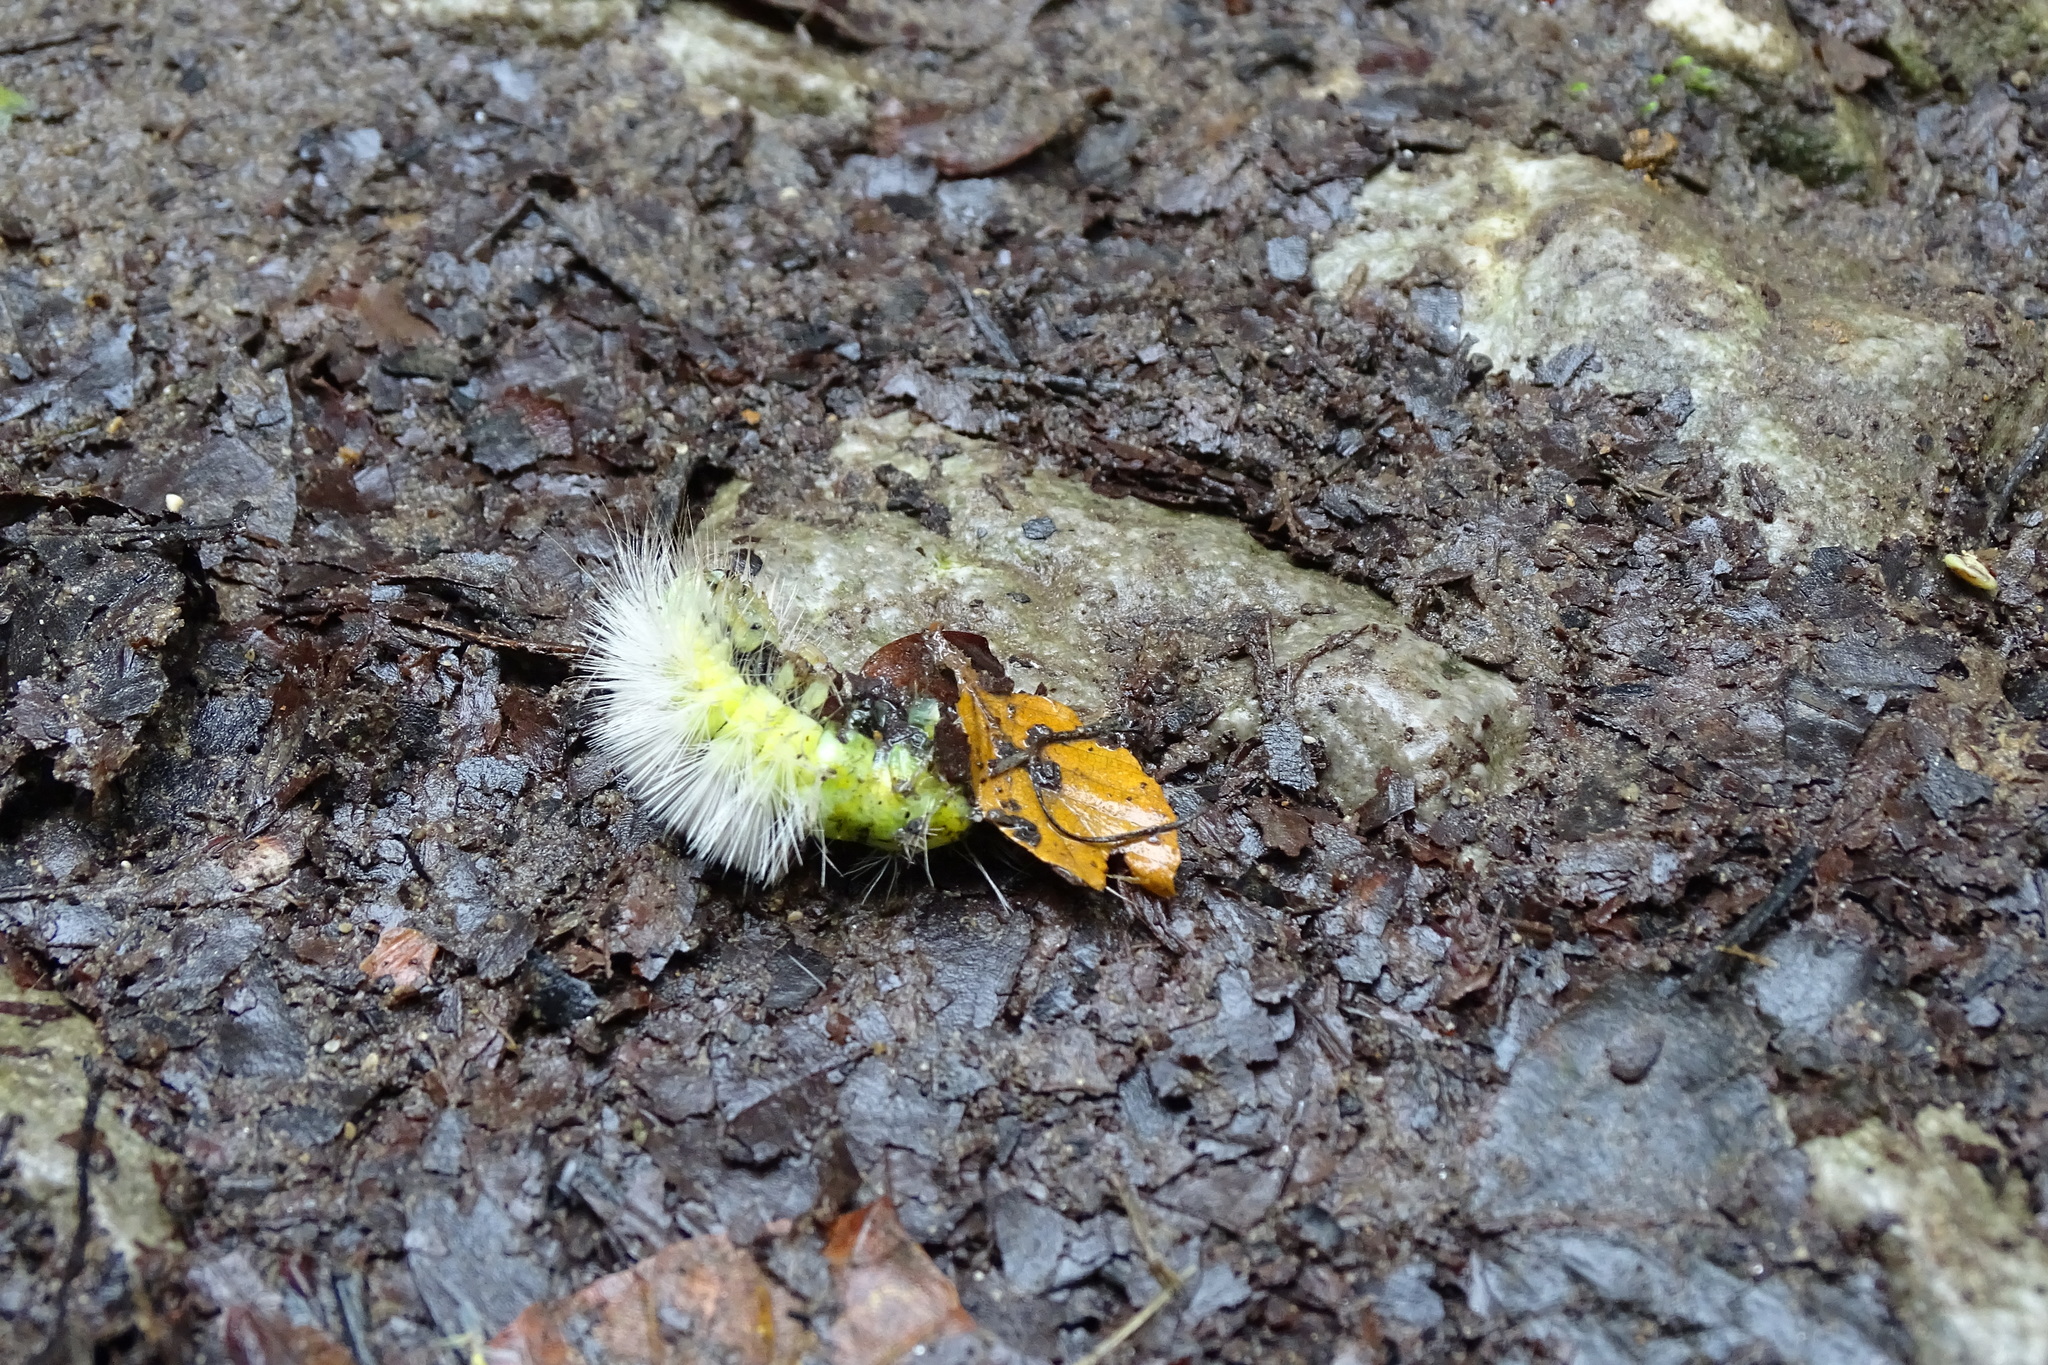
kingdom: Animalia
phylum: Arthropoda
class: Insecta
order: Lepidoptera
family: Erebidae
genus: Calliteara
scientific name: Calliteara pudibunda
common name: Pale tussock
